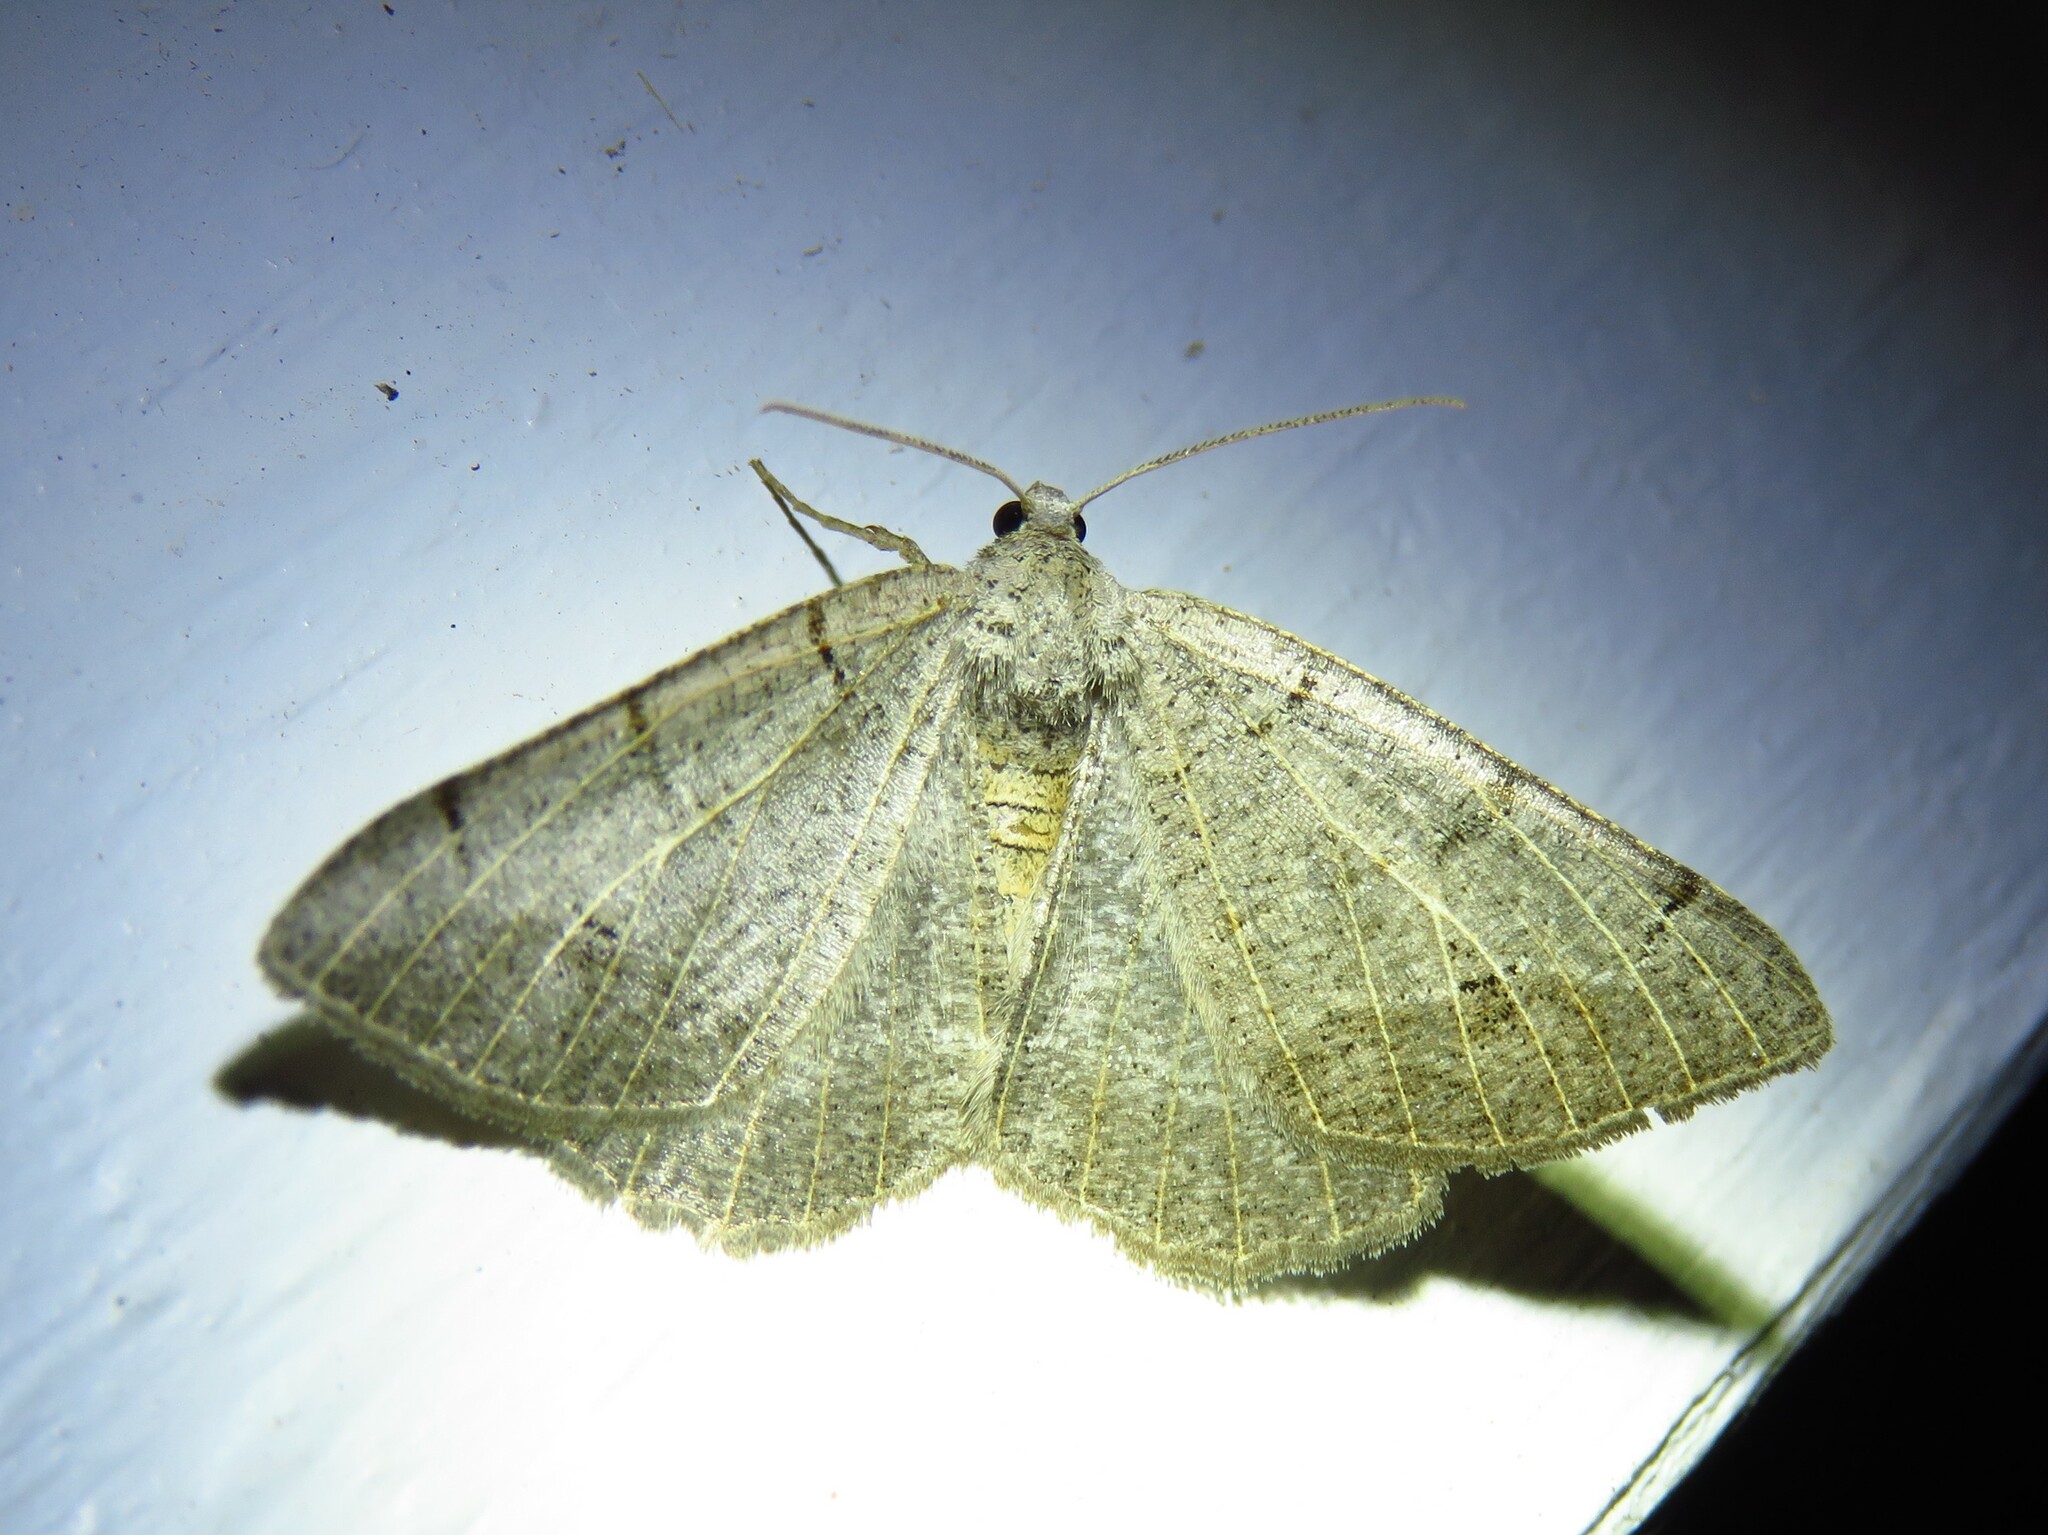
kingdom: Animalia
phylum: Arthropoda
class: Insecta
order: Lepidoptera
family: Geometridae
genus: Isturgia
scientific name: Isturgia dislocaria
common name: Pale-viened enconista
